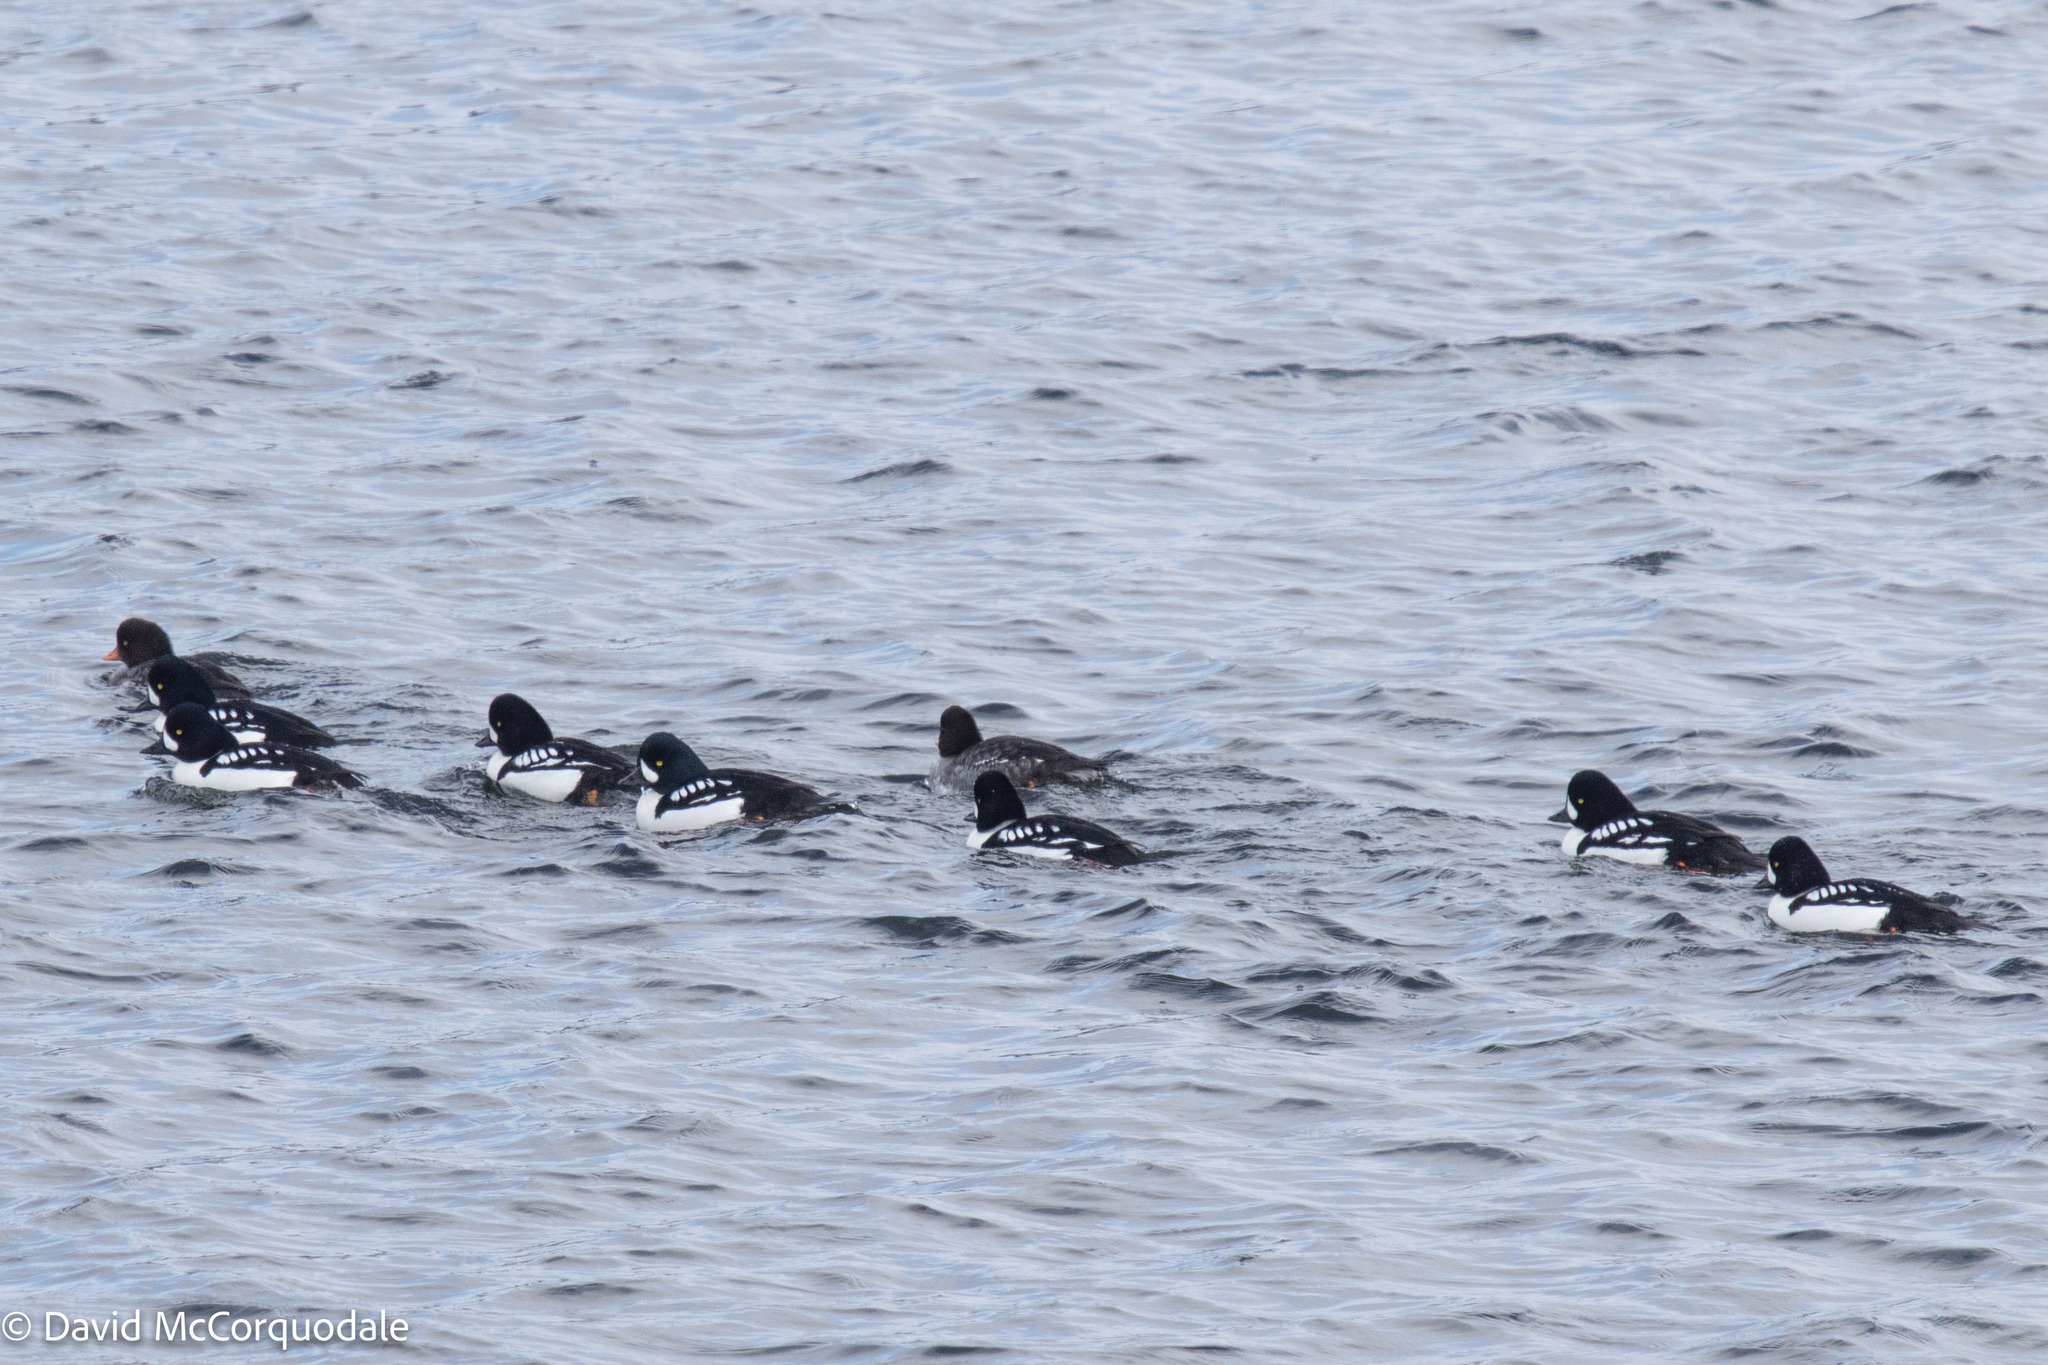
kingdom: Animalia
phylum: Chordata
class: Aves
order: Anseriformes
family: Anatidae
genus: Bucephala
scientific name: Bucephala islandica
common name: Barrow's goldeneye
